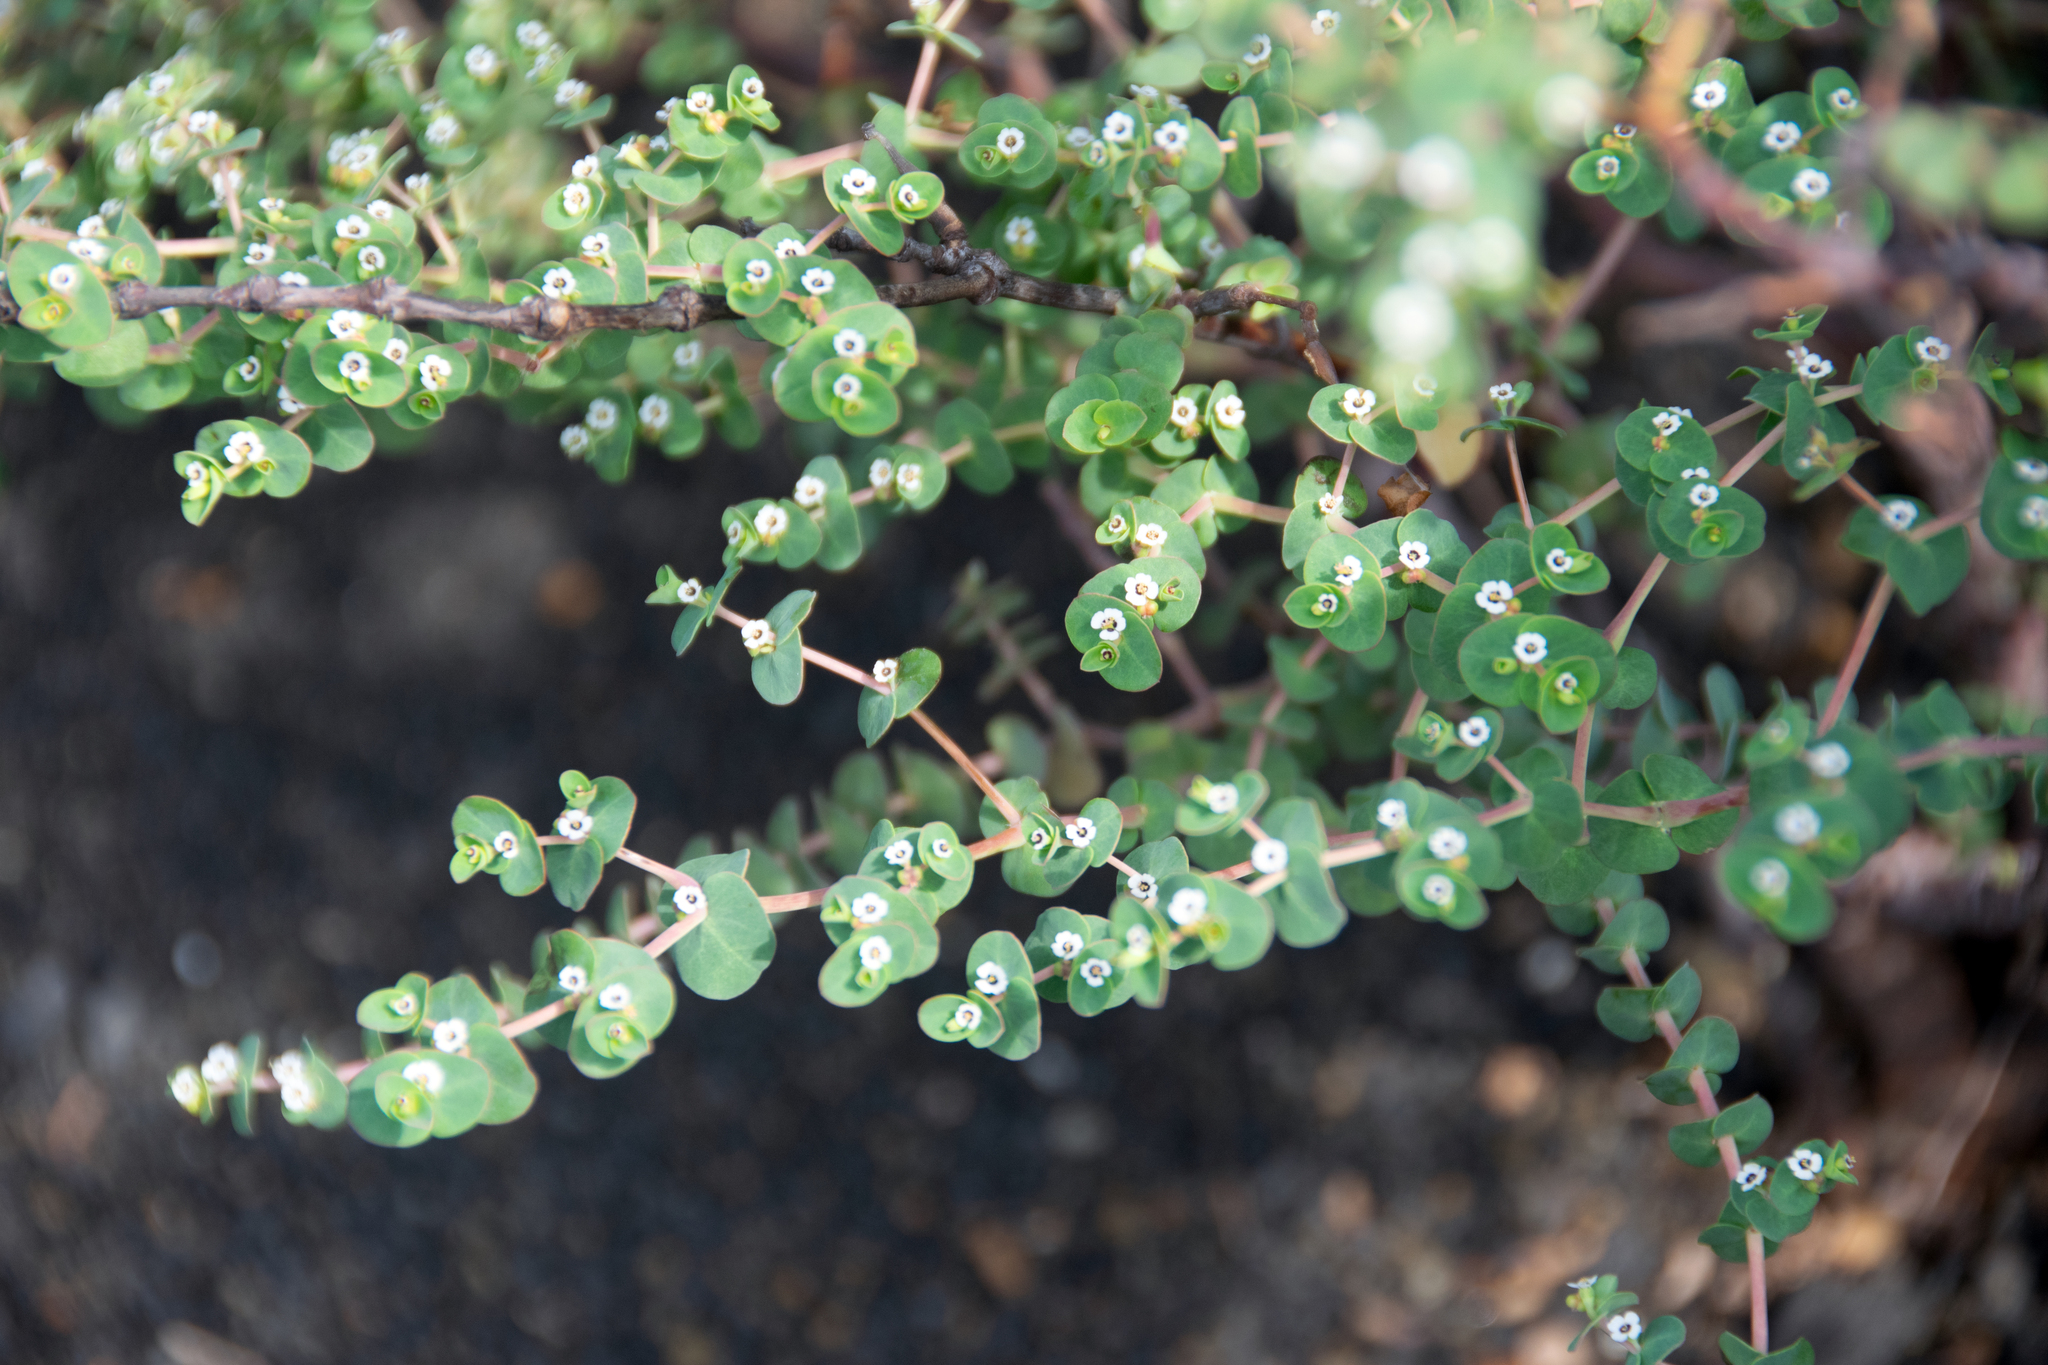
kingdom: Plantae
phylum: Tracheophyta
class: Magnoliopsida
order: Malpighiales
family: Euphorbiaceae
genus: Euphorbia
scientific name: Euphorbia amplexicaulis
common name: Chamaesyce
